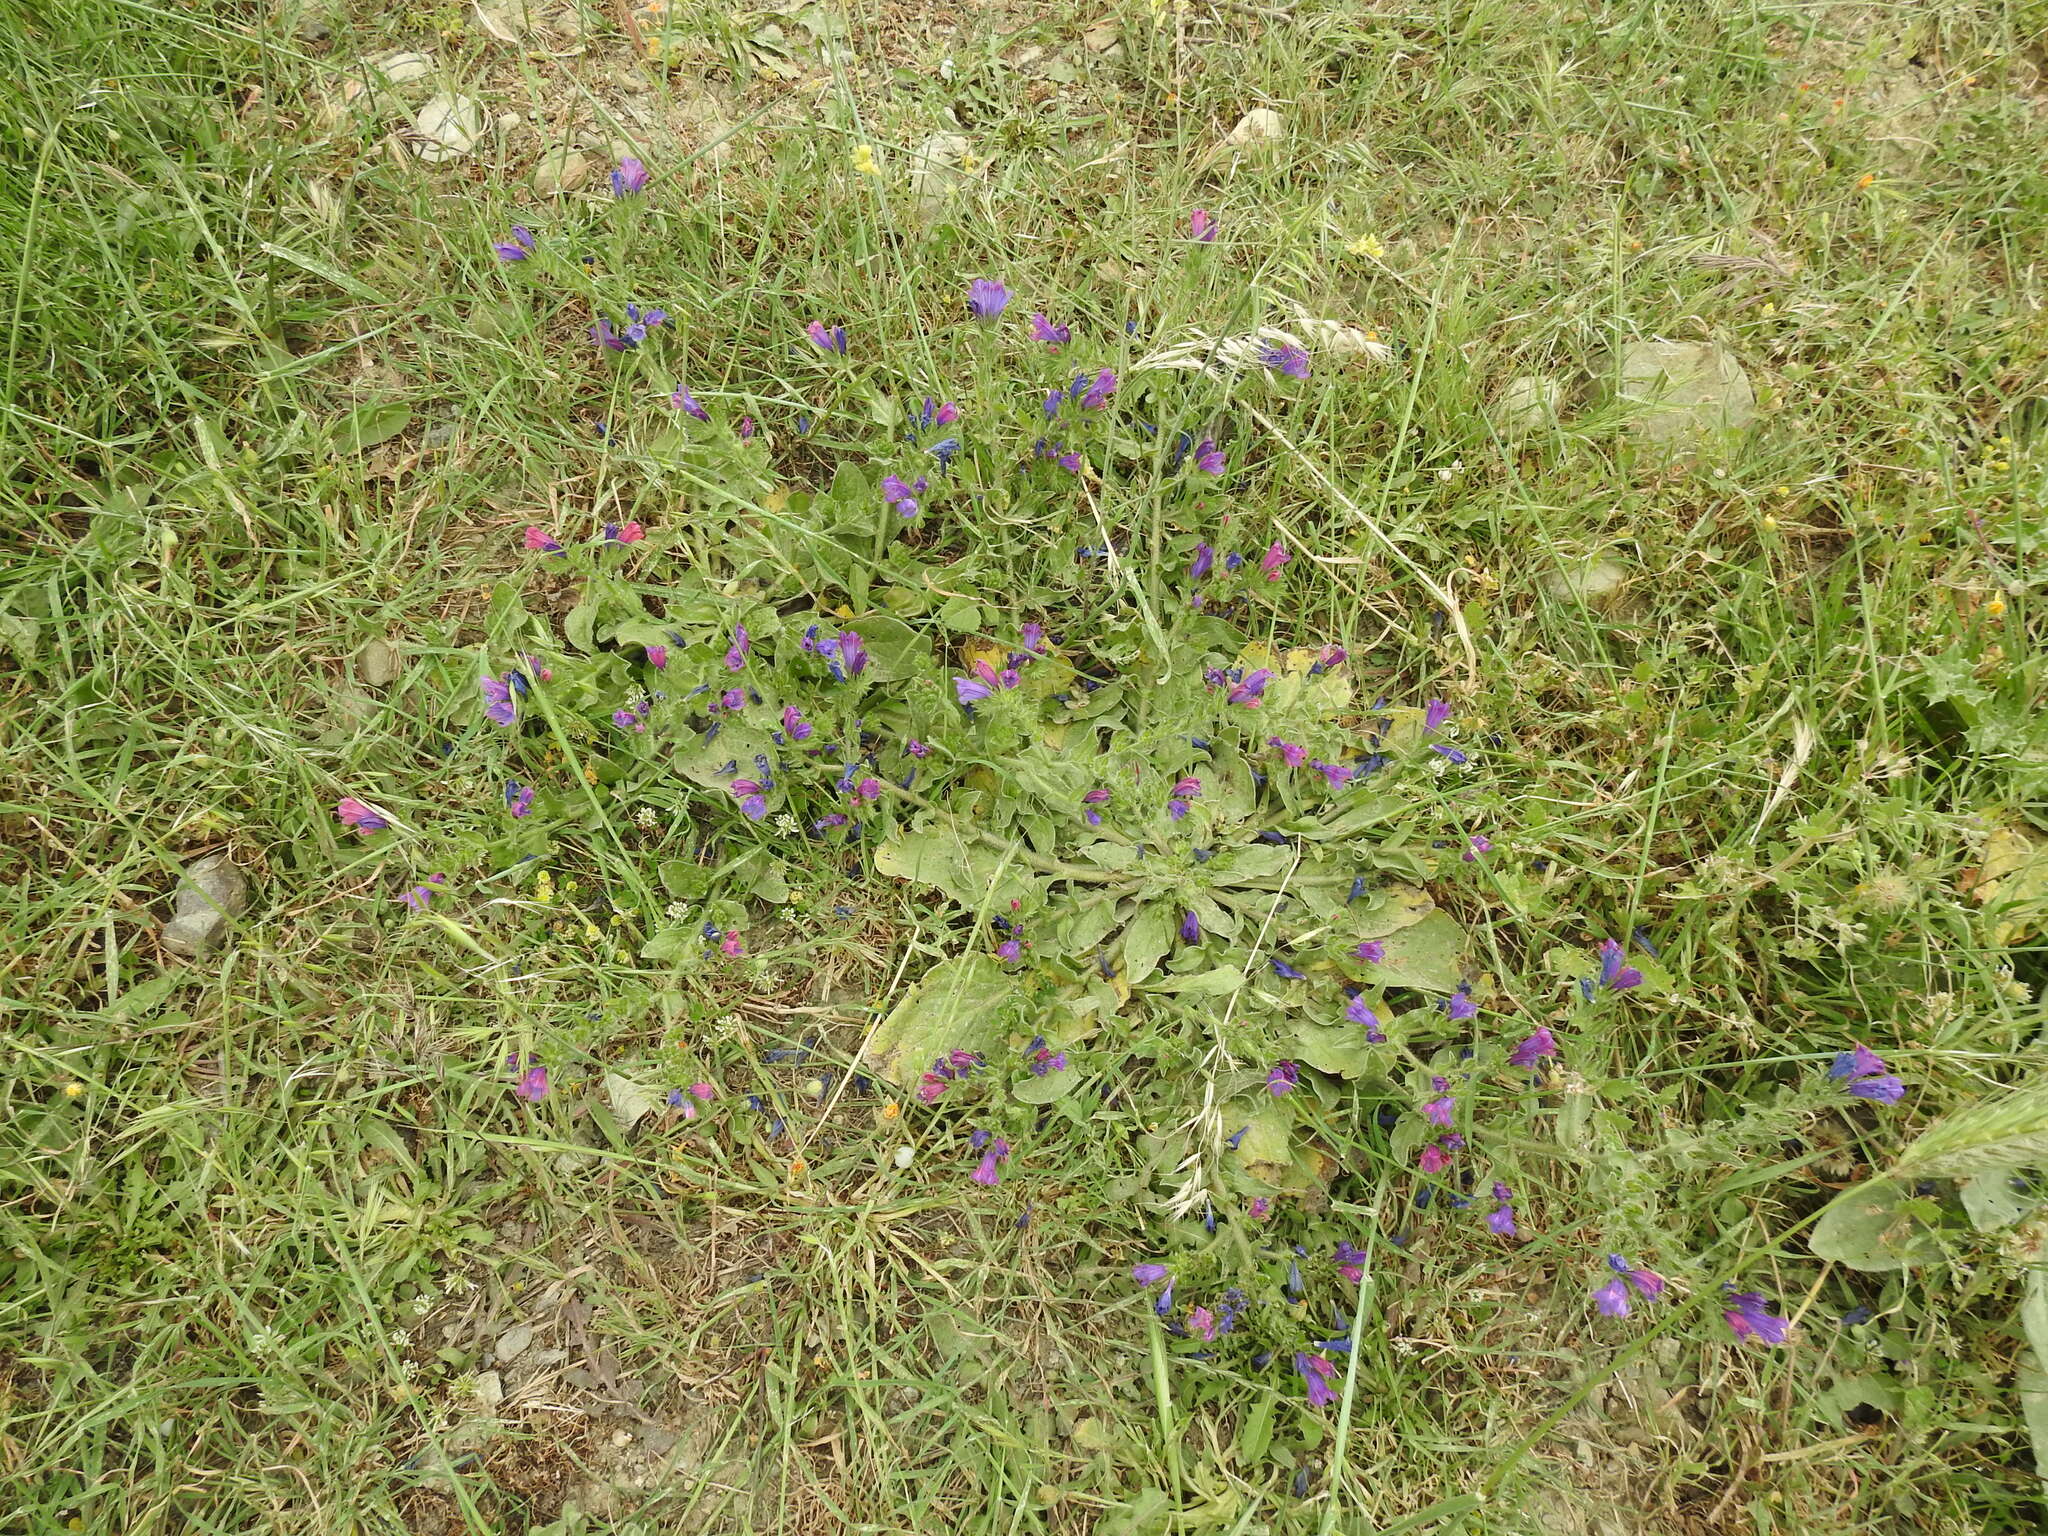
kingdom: Plantae
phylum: Tracheophyta
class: Magnoliopsida
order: Boraginales
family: Boraginaceae
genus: Echium
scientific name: Echium plantagineum
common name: Purple viper's-bugloss
